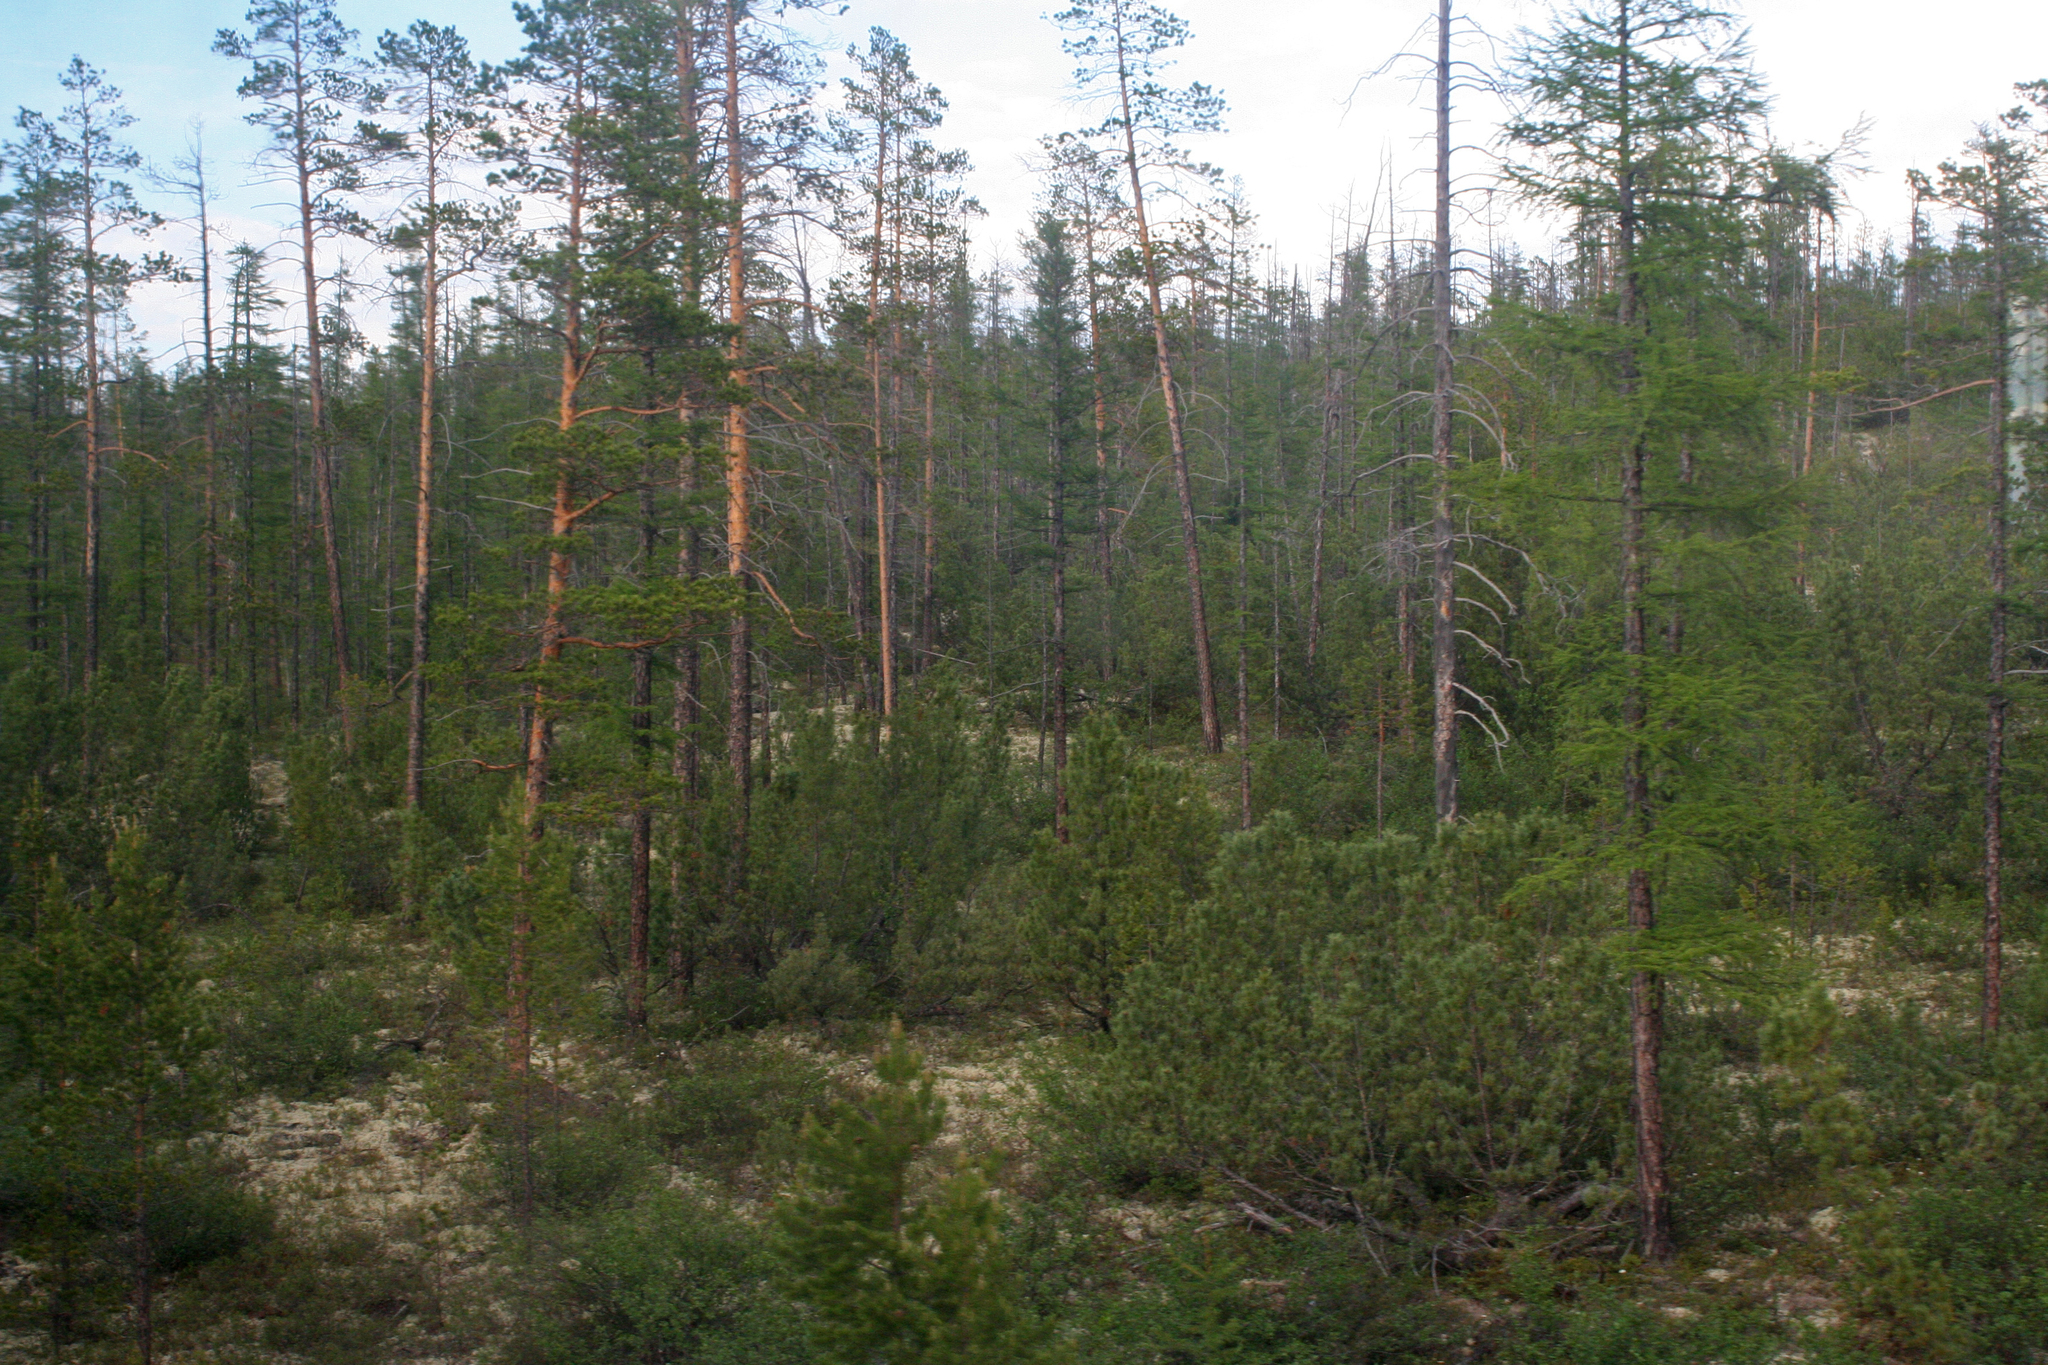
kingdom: Plantae
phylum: Tracheophyta
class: Pinopsida
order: Pinales
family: Pinaceae
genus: Pinus
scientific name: Pinus sylvestris
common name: Scots pine
